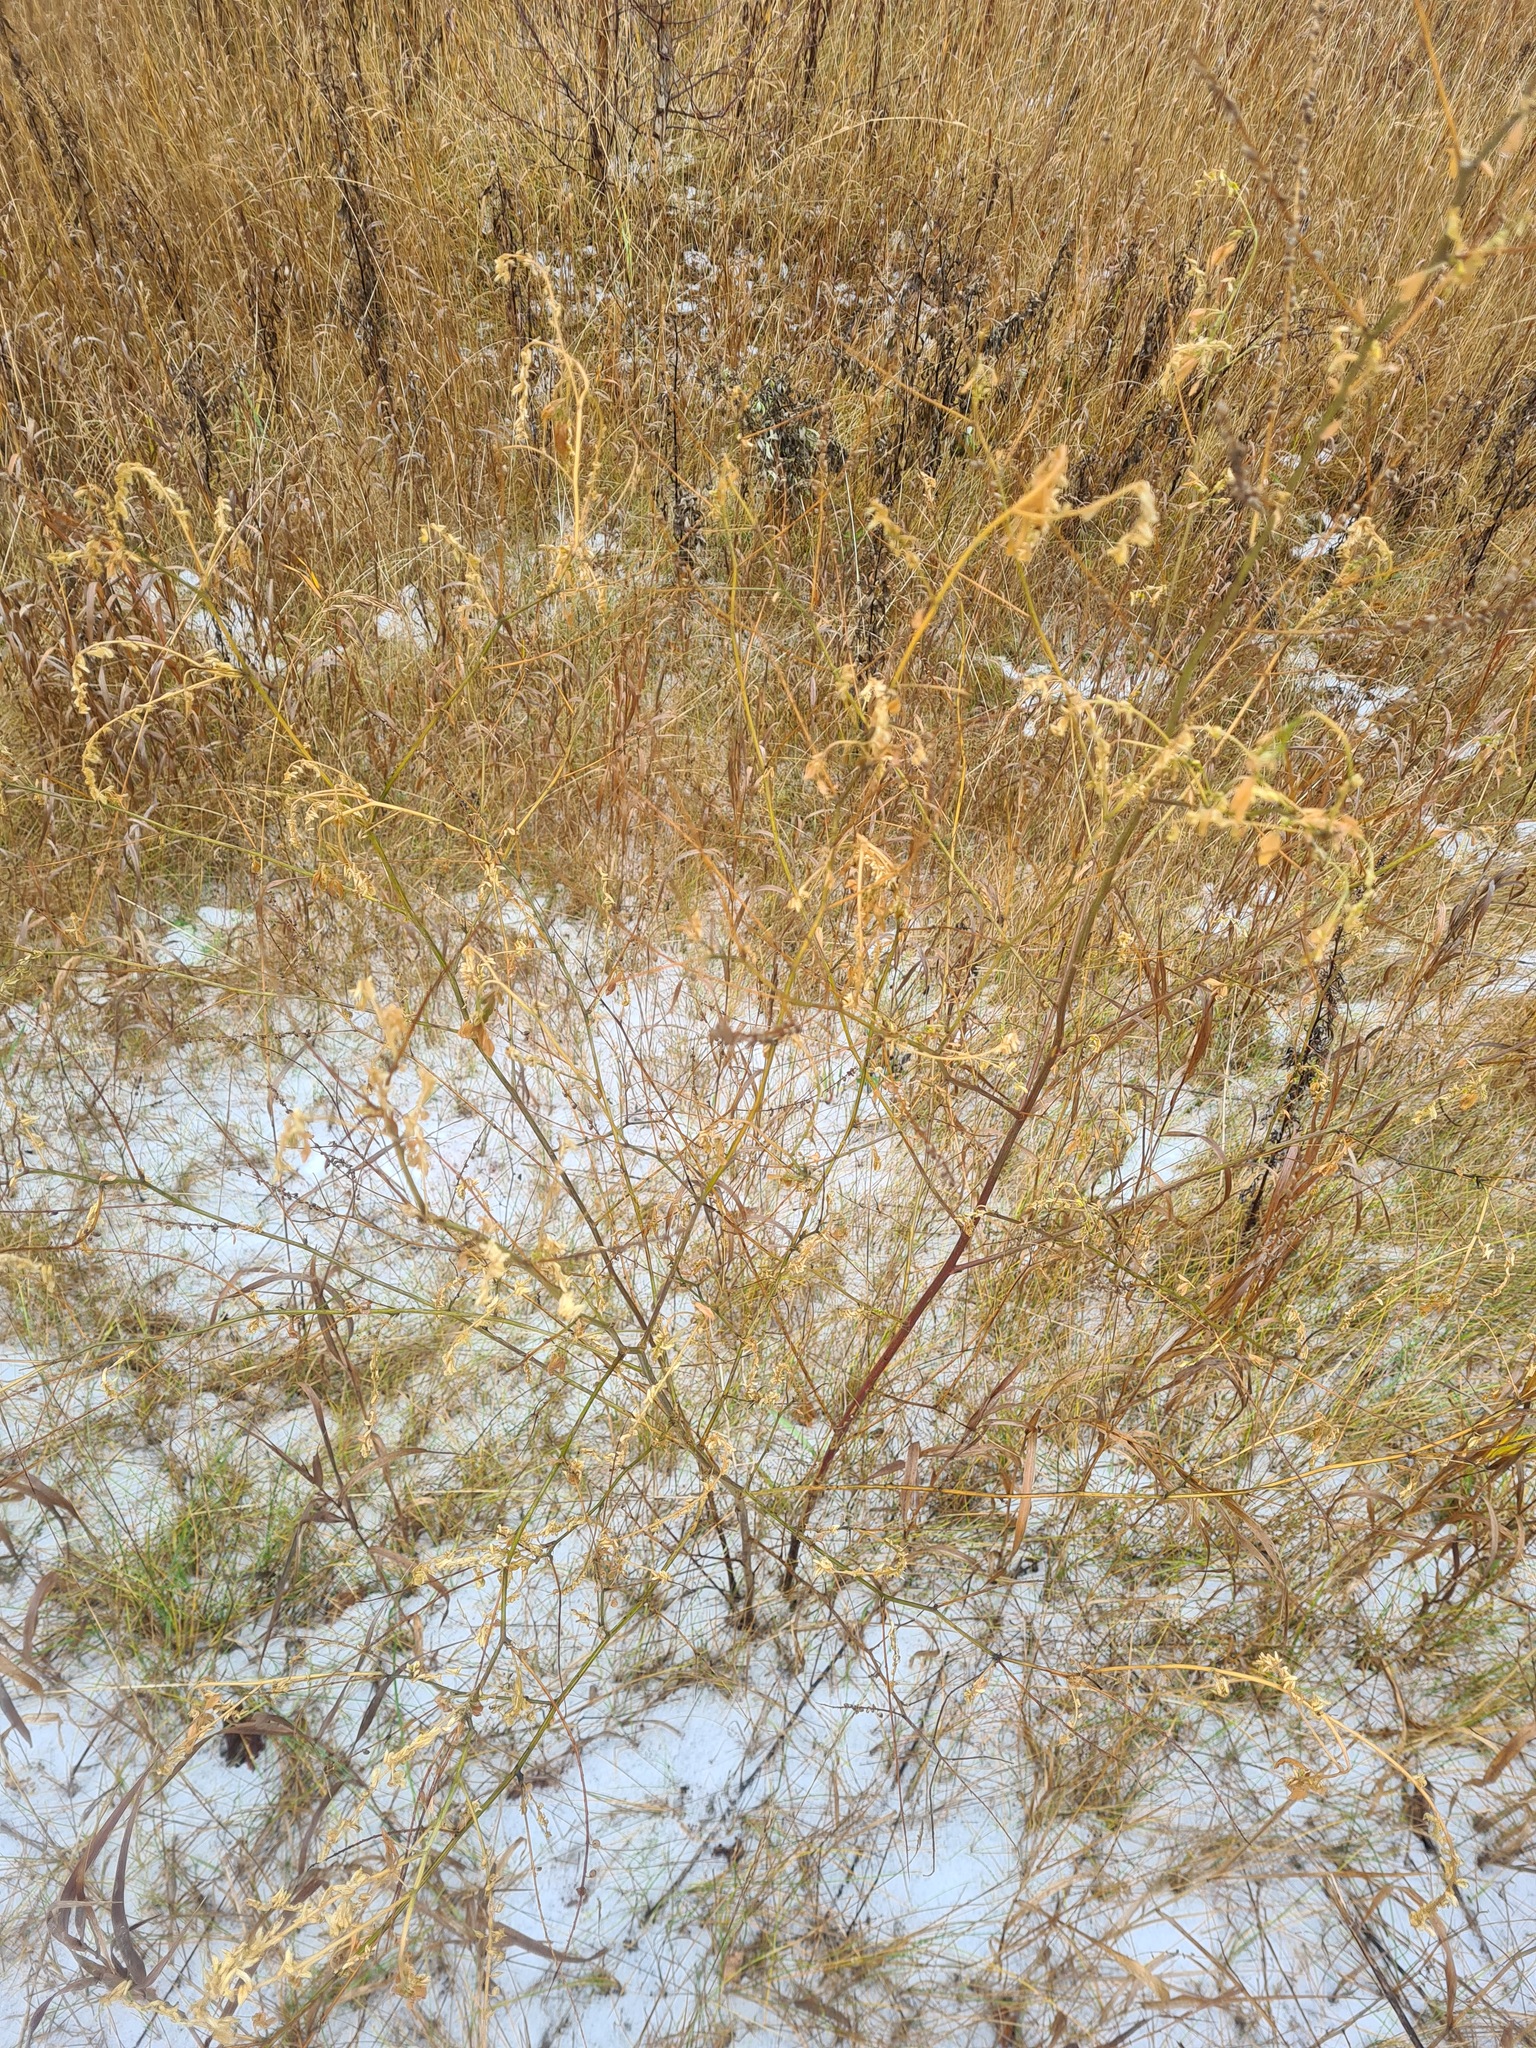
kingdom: Plantae
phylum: Tracheophyta
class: Magnoliopsida
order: Fabales
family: Fabaceae
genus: Melilotus
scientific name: Melilotus officinalis
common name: Sweetclover
